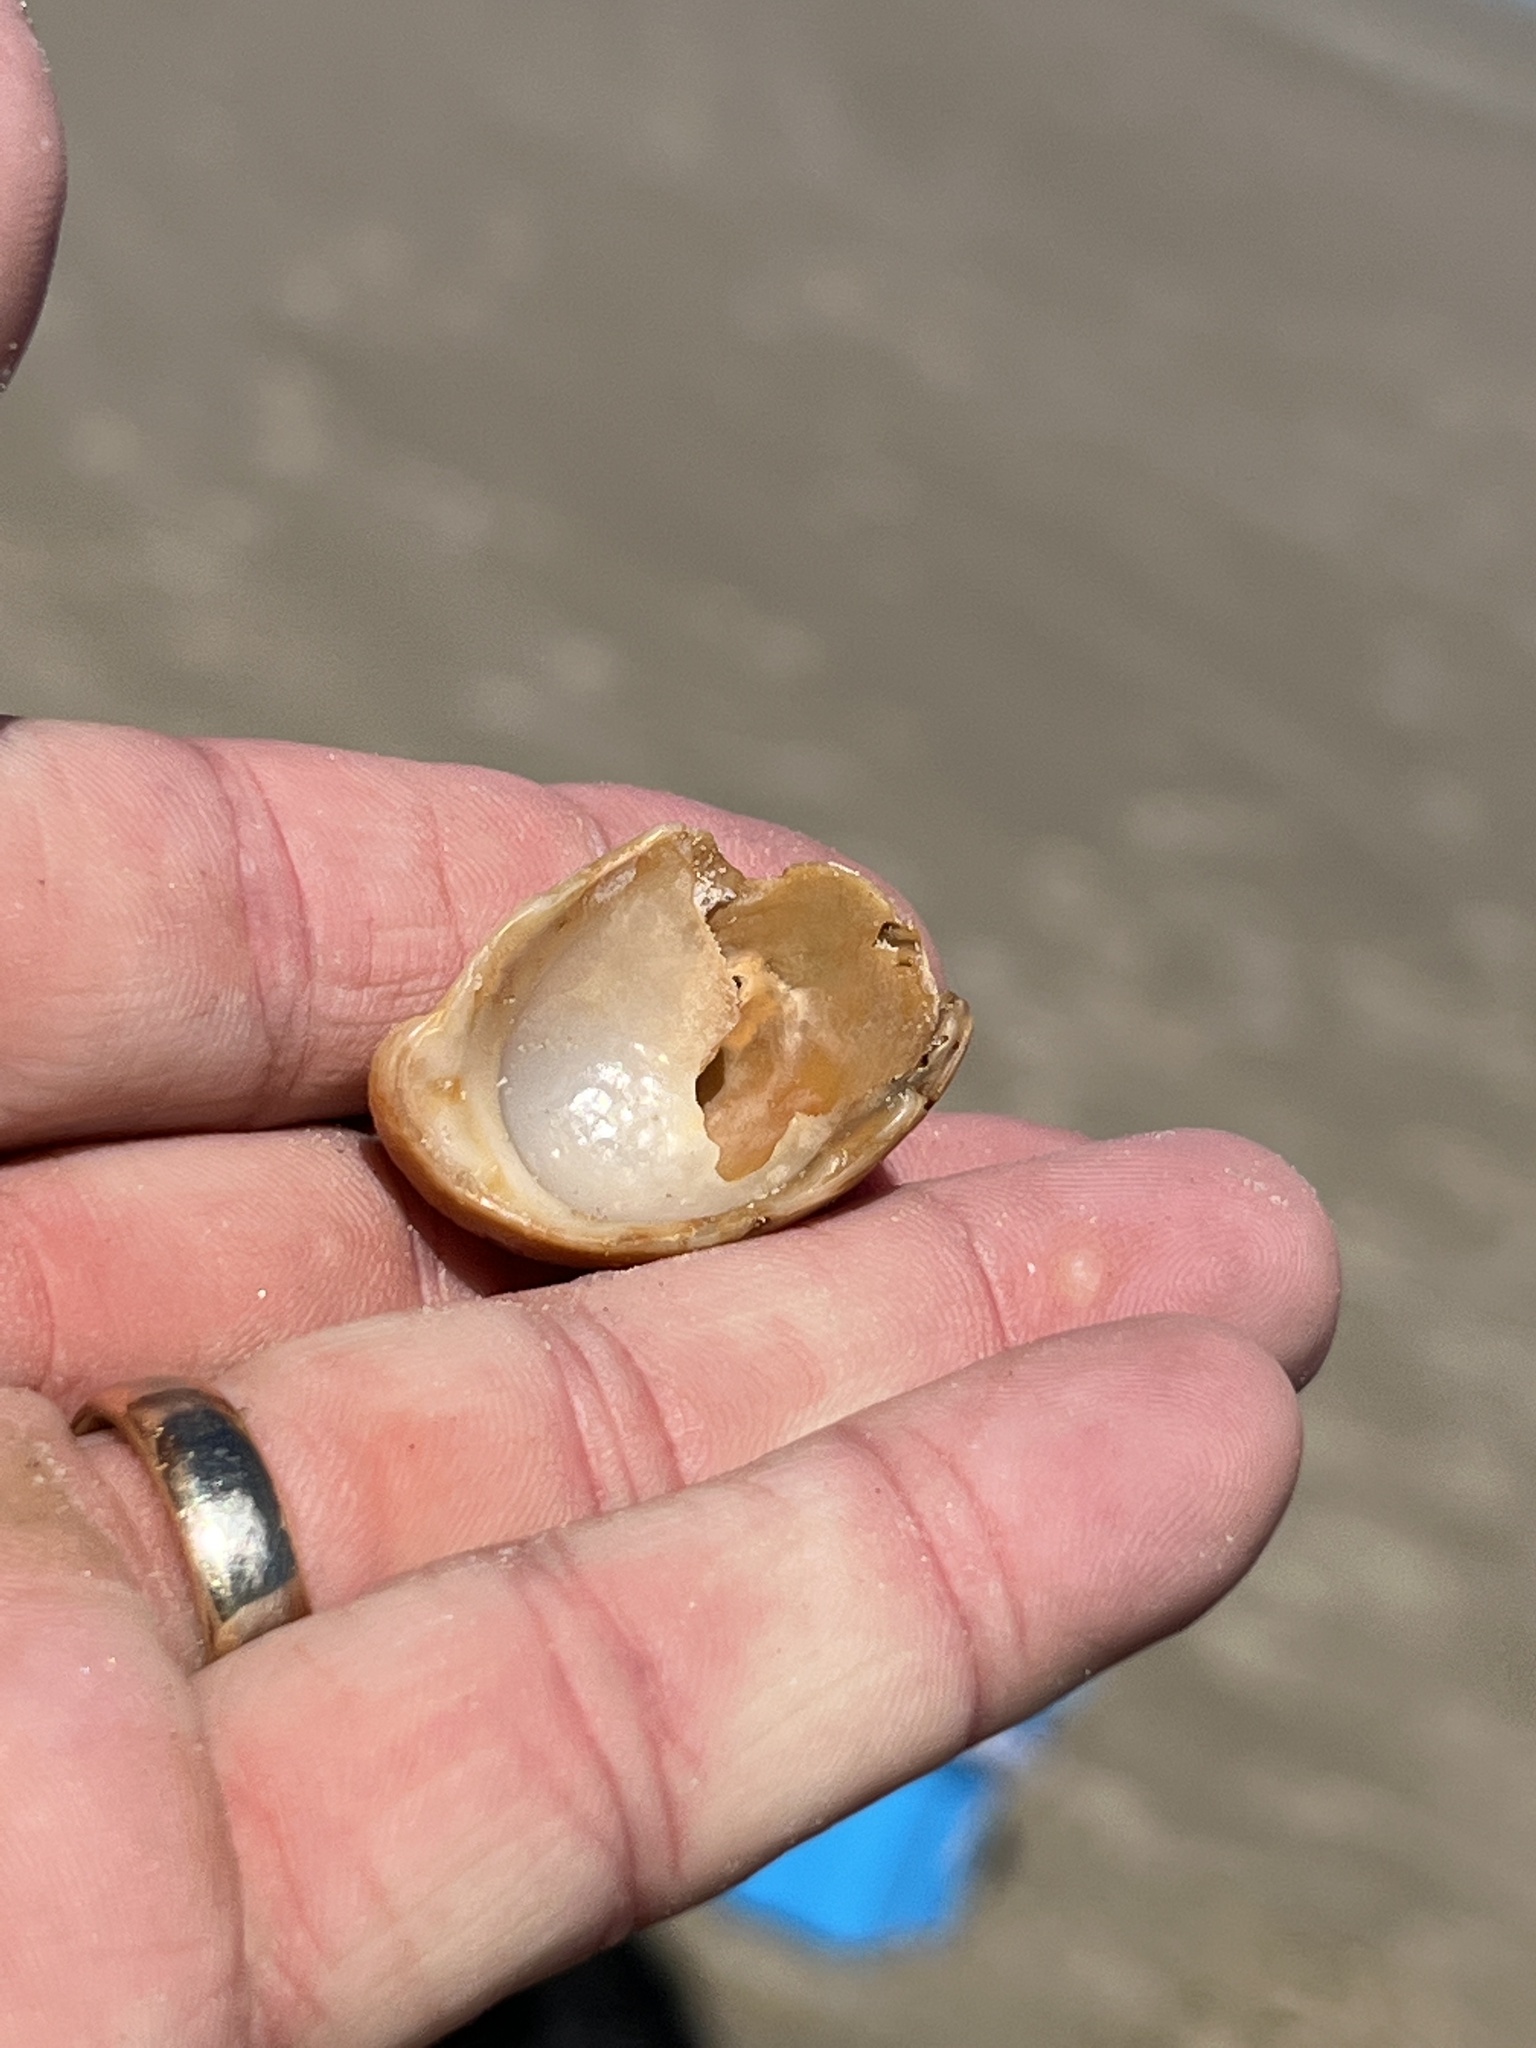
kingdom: Animalia
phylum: Mollusca
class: Gastropoda
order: Littorinimorpha
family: Calyptraeidae
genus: Crepidula
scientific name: Crepidula fornicata
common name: Slipper limpet
